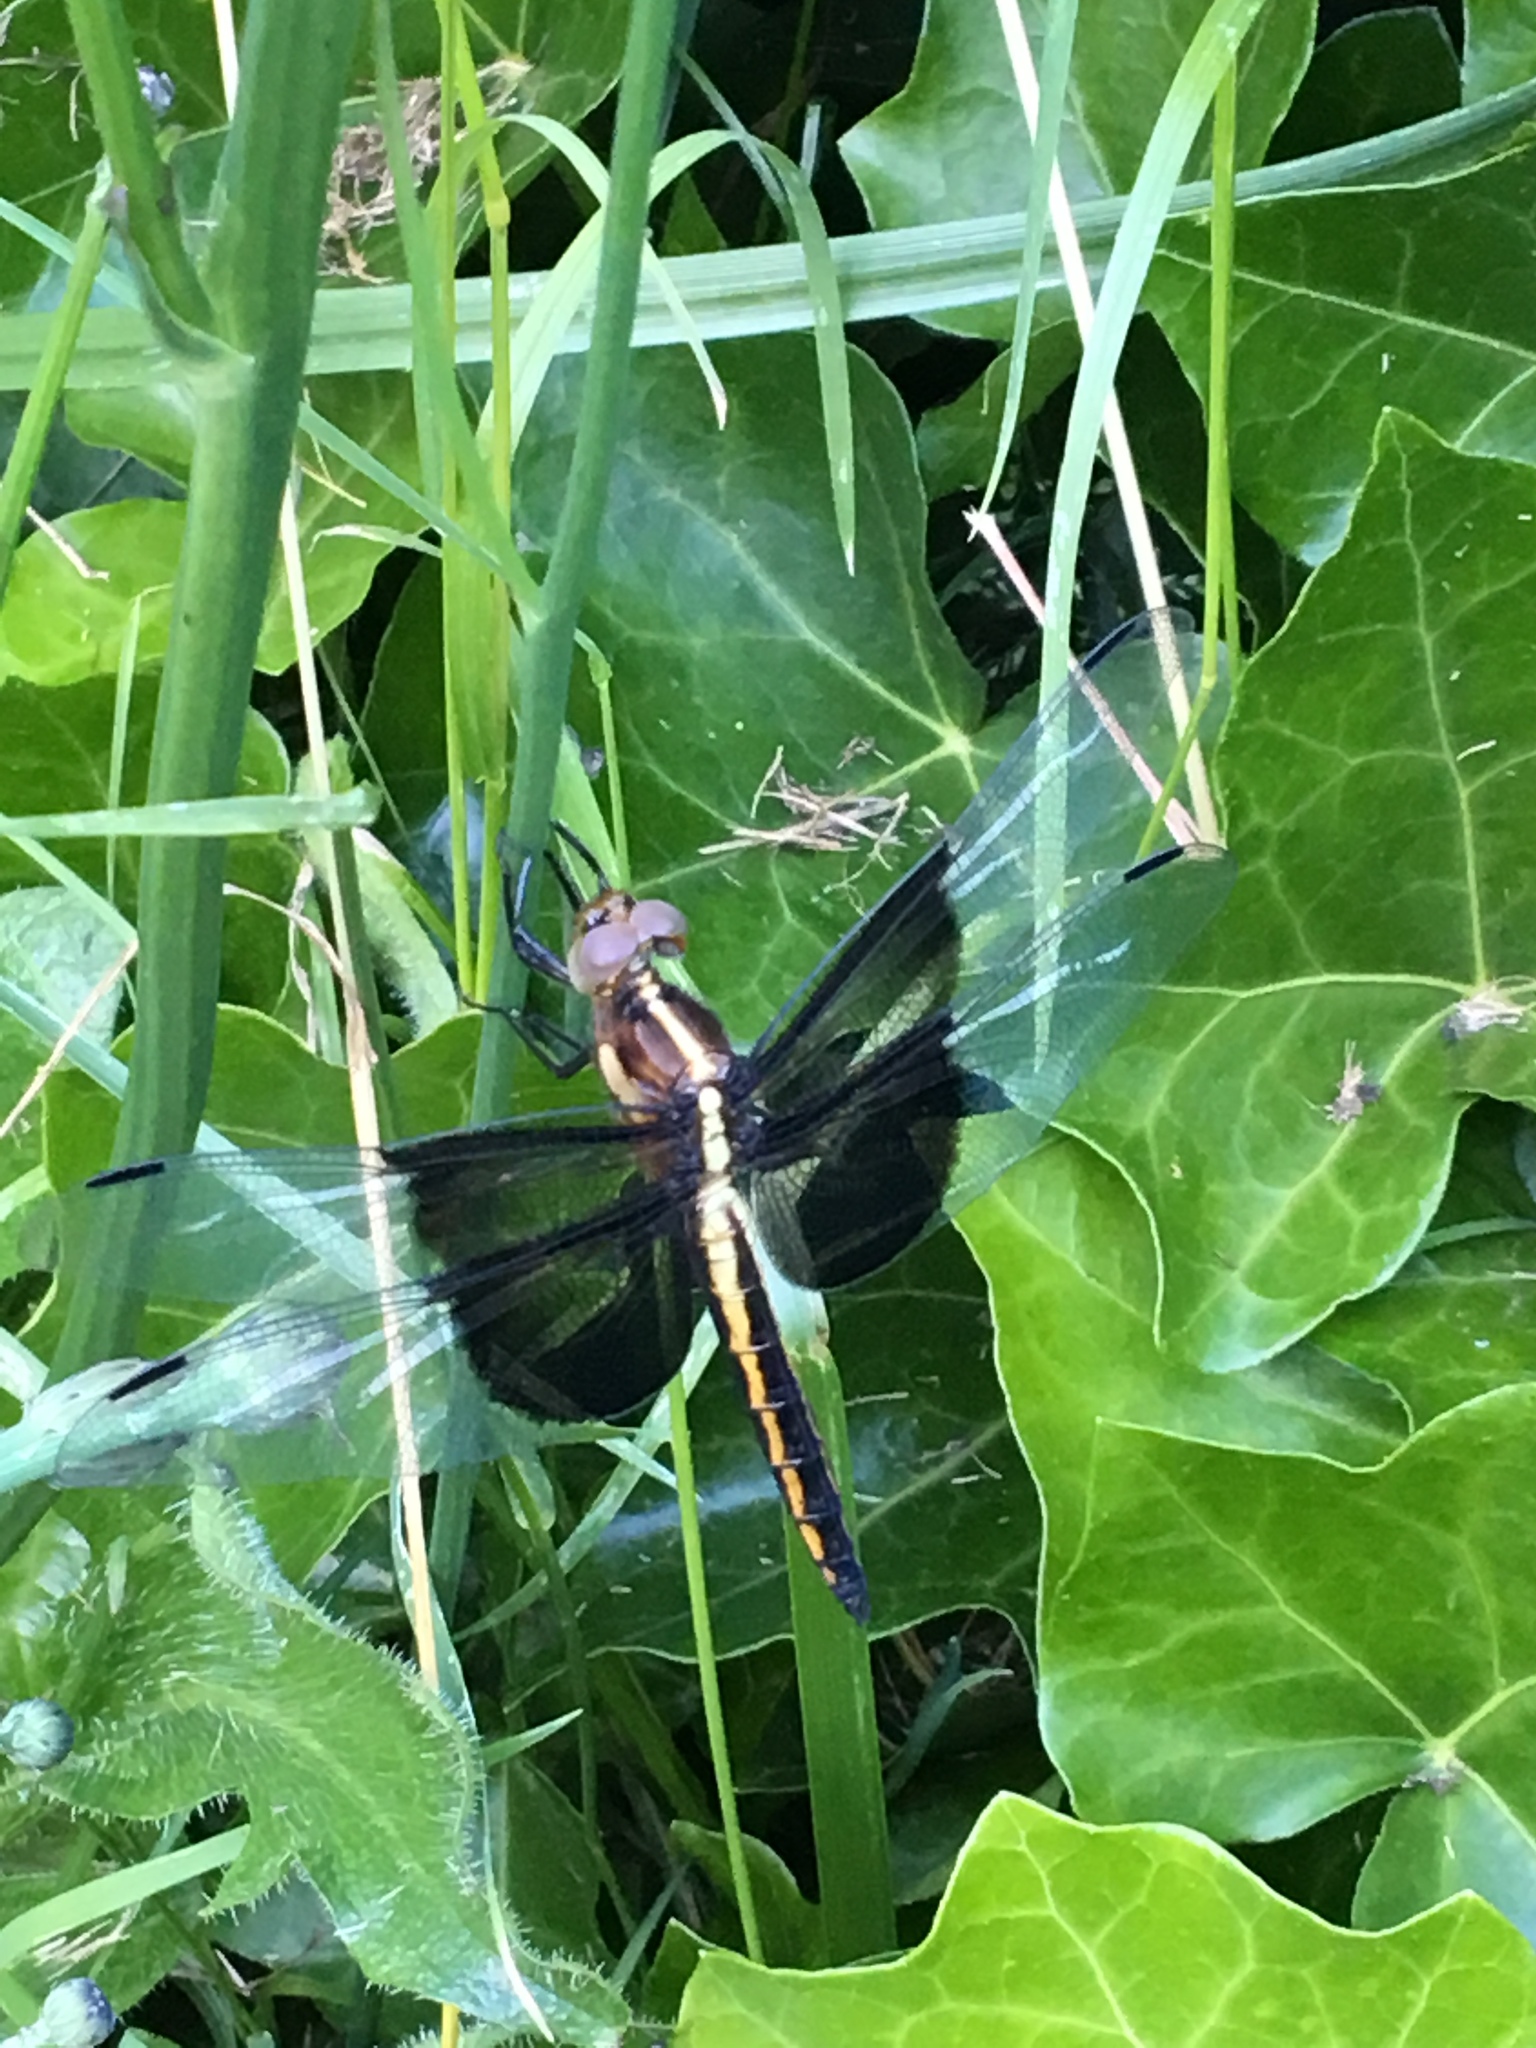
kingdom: Animalia
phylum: Arthropoda
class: Insecta
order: Odonata
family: Libellulidae
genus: Libellula
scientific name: Libellula luctuosa
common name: Widow skimmer
